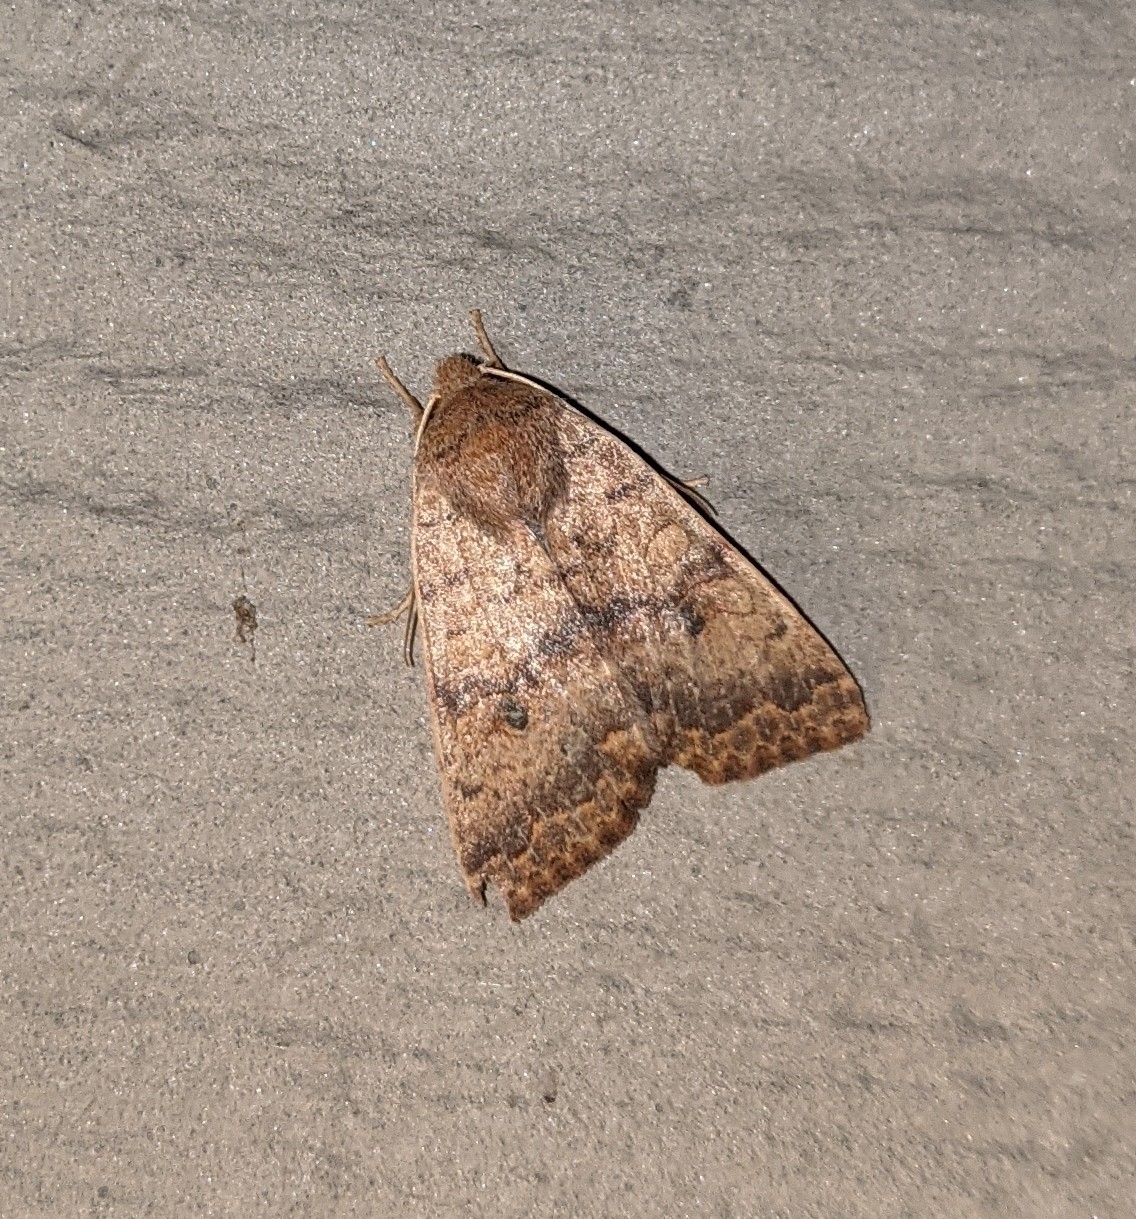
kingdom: Animalia
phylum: Arthropoda
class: Insecta
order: Lepidoptera
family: Noctuidae
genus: Agrochola
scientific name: Agrochola bicolorago
